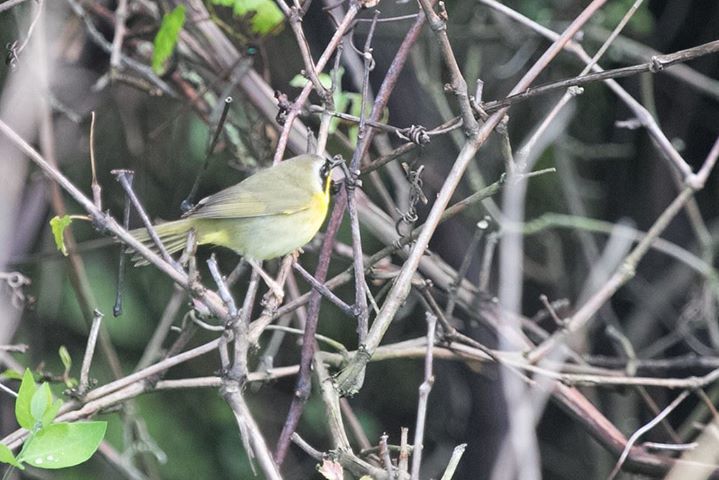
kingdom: Animalia
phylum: Chordata
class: Aves
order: Passeriformes
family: Parulidae
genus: Geothlypis
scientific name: Geothlypis trichas
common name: Common yellowthroat
